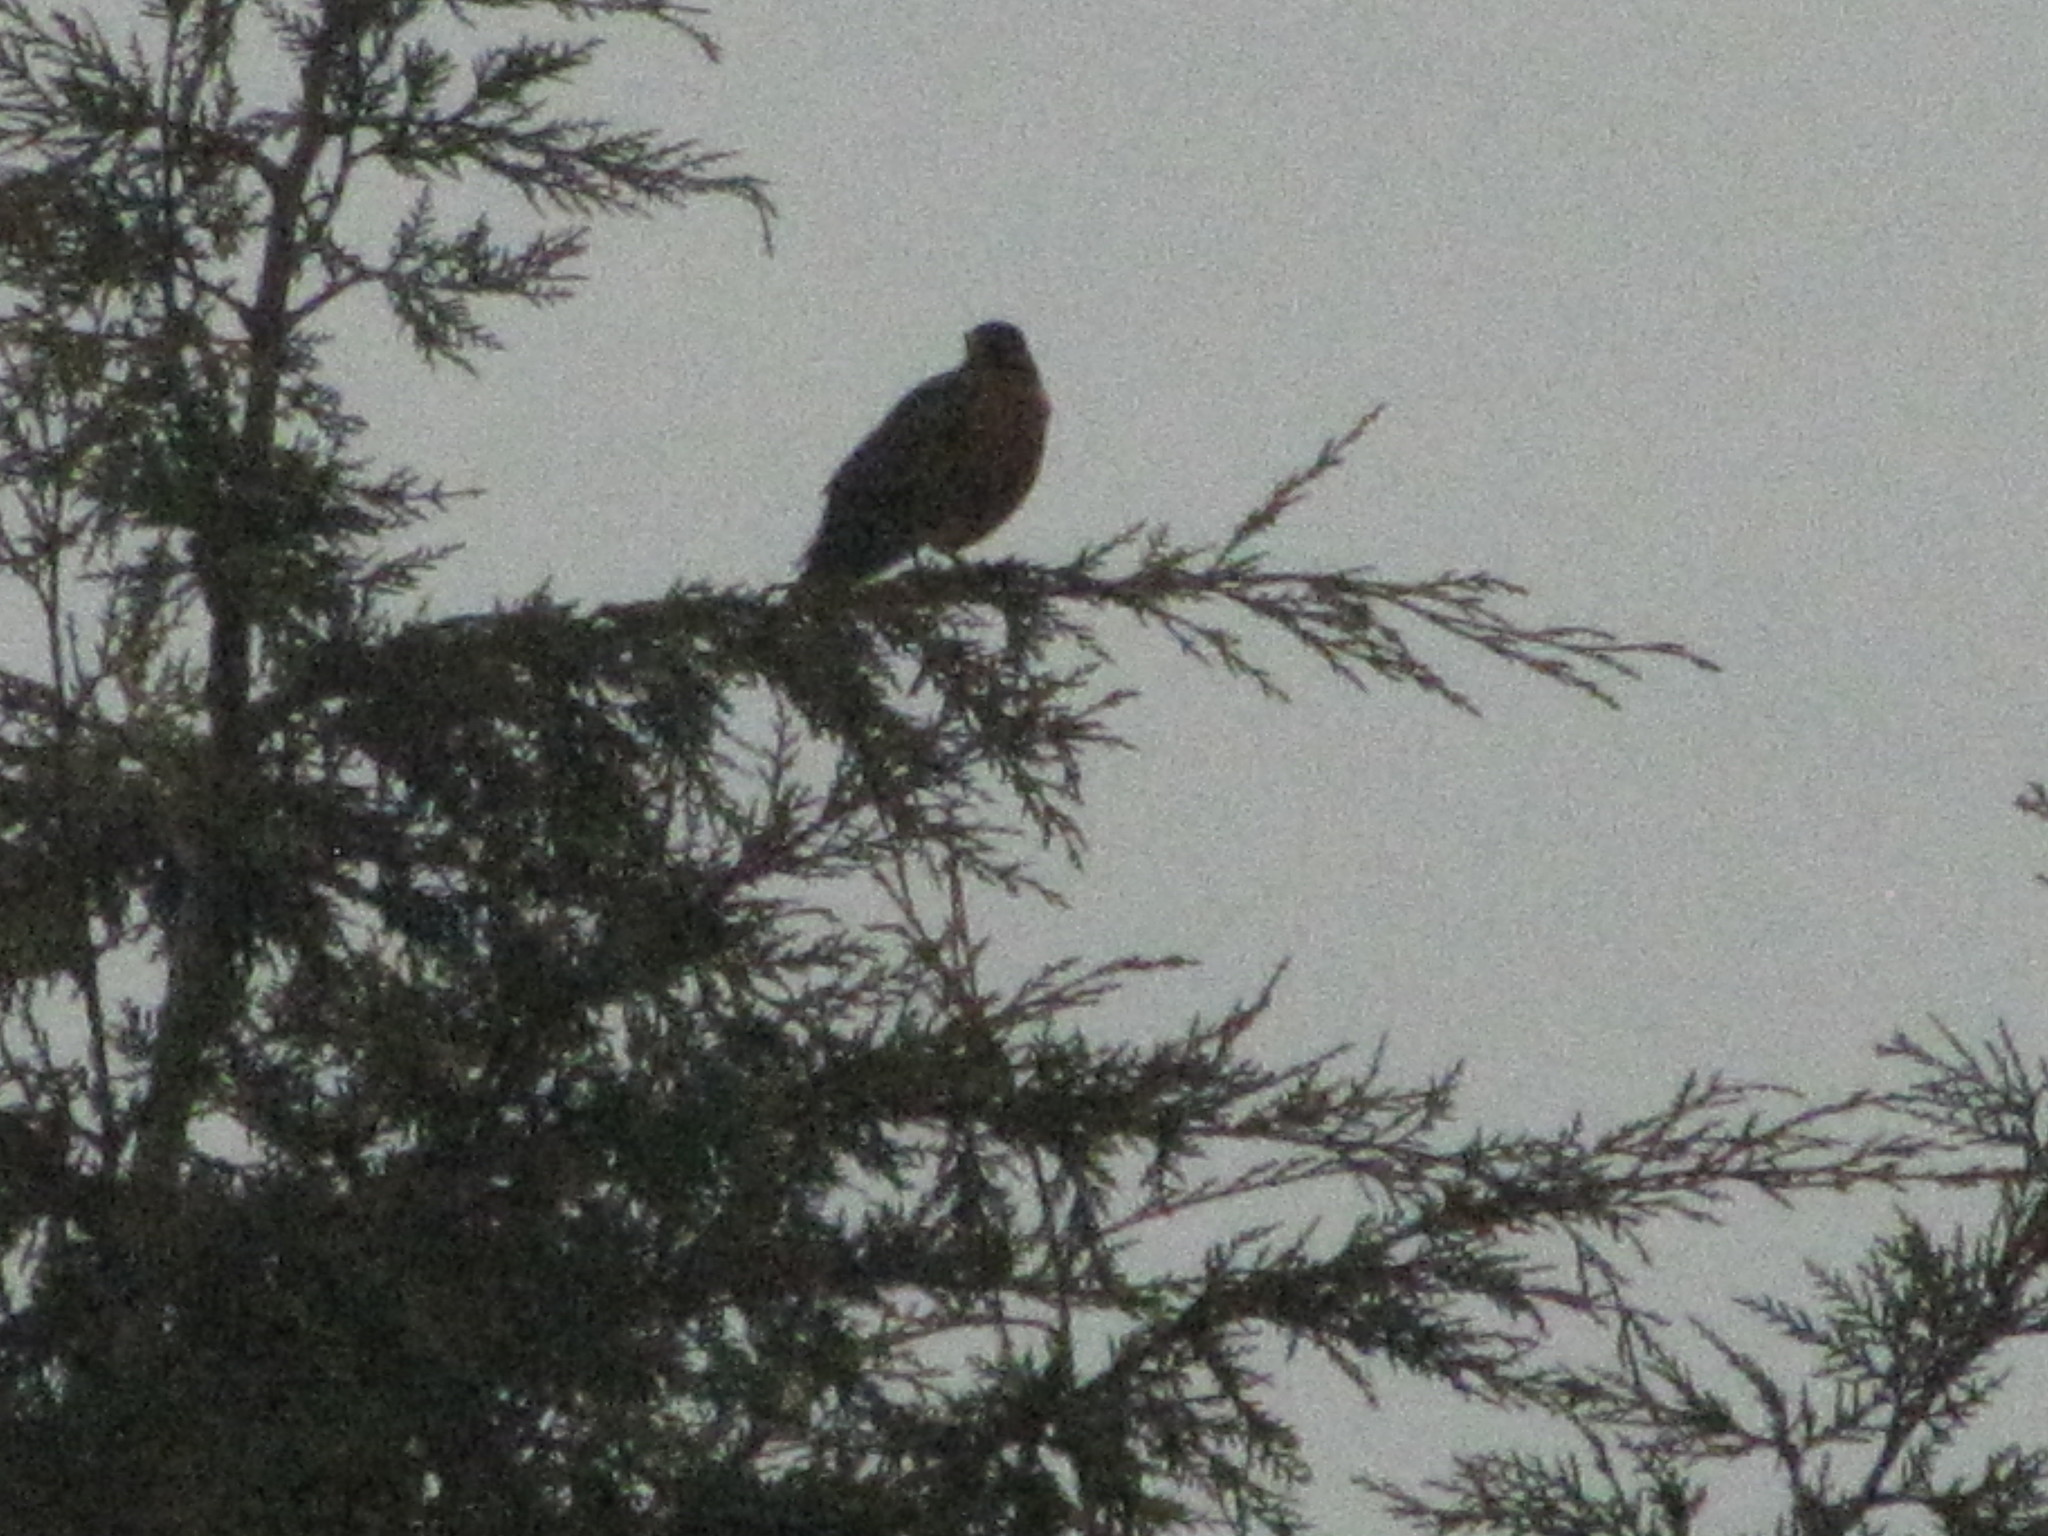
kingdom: Animalia
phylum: Chordata
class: Aves
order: Passeriformes
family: Turdidae
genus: Turdus
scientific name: Turdus migratorius
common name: American robin
